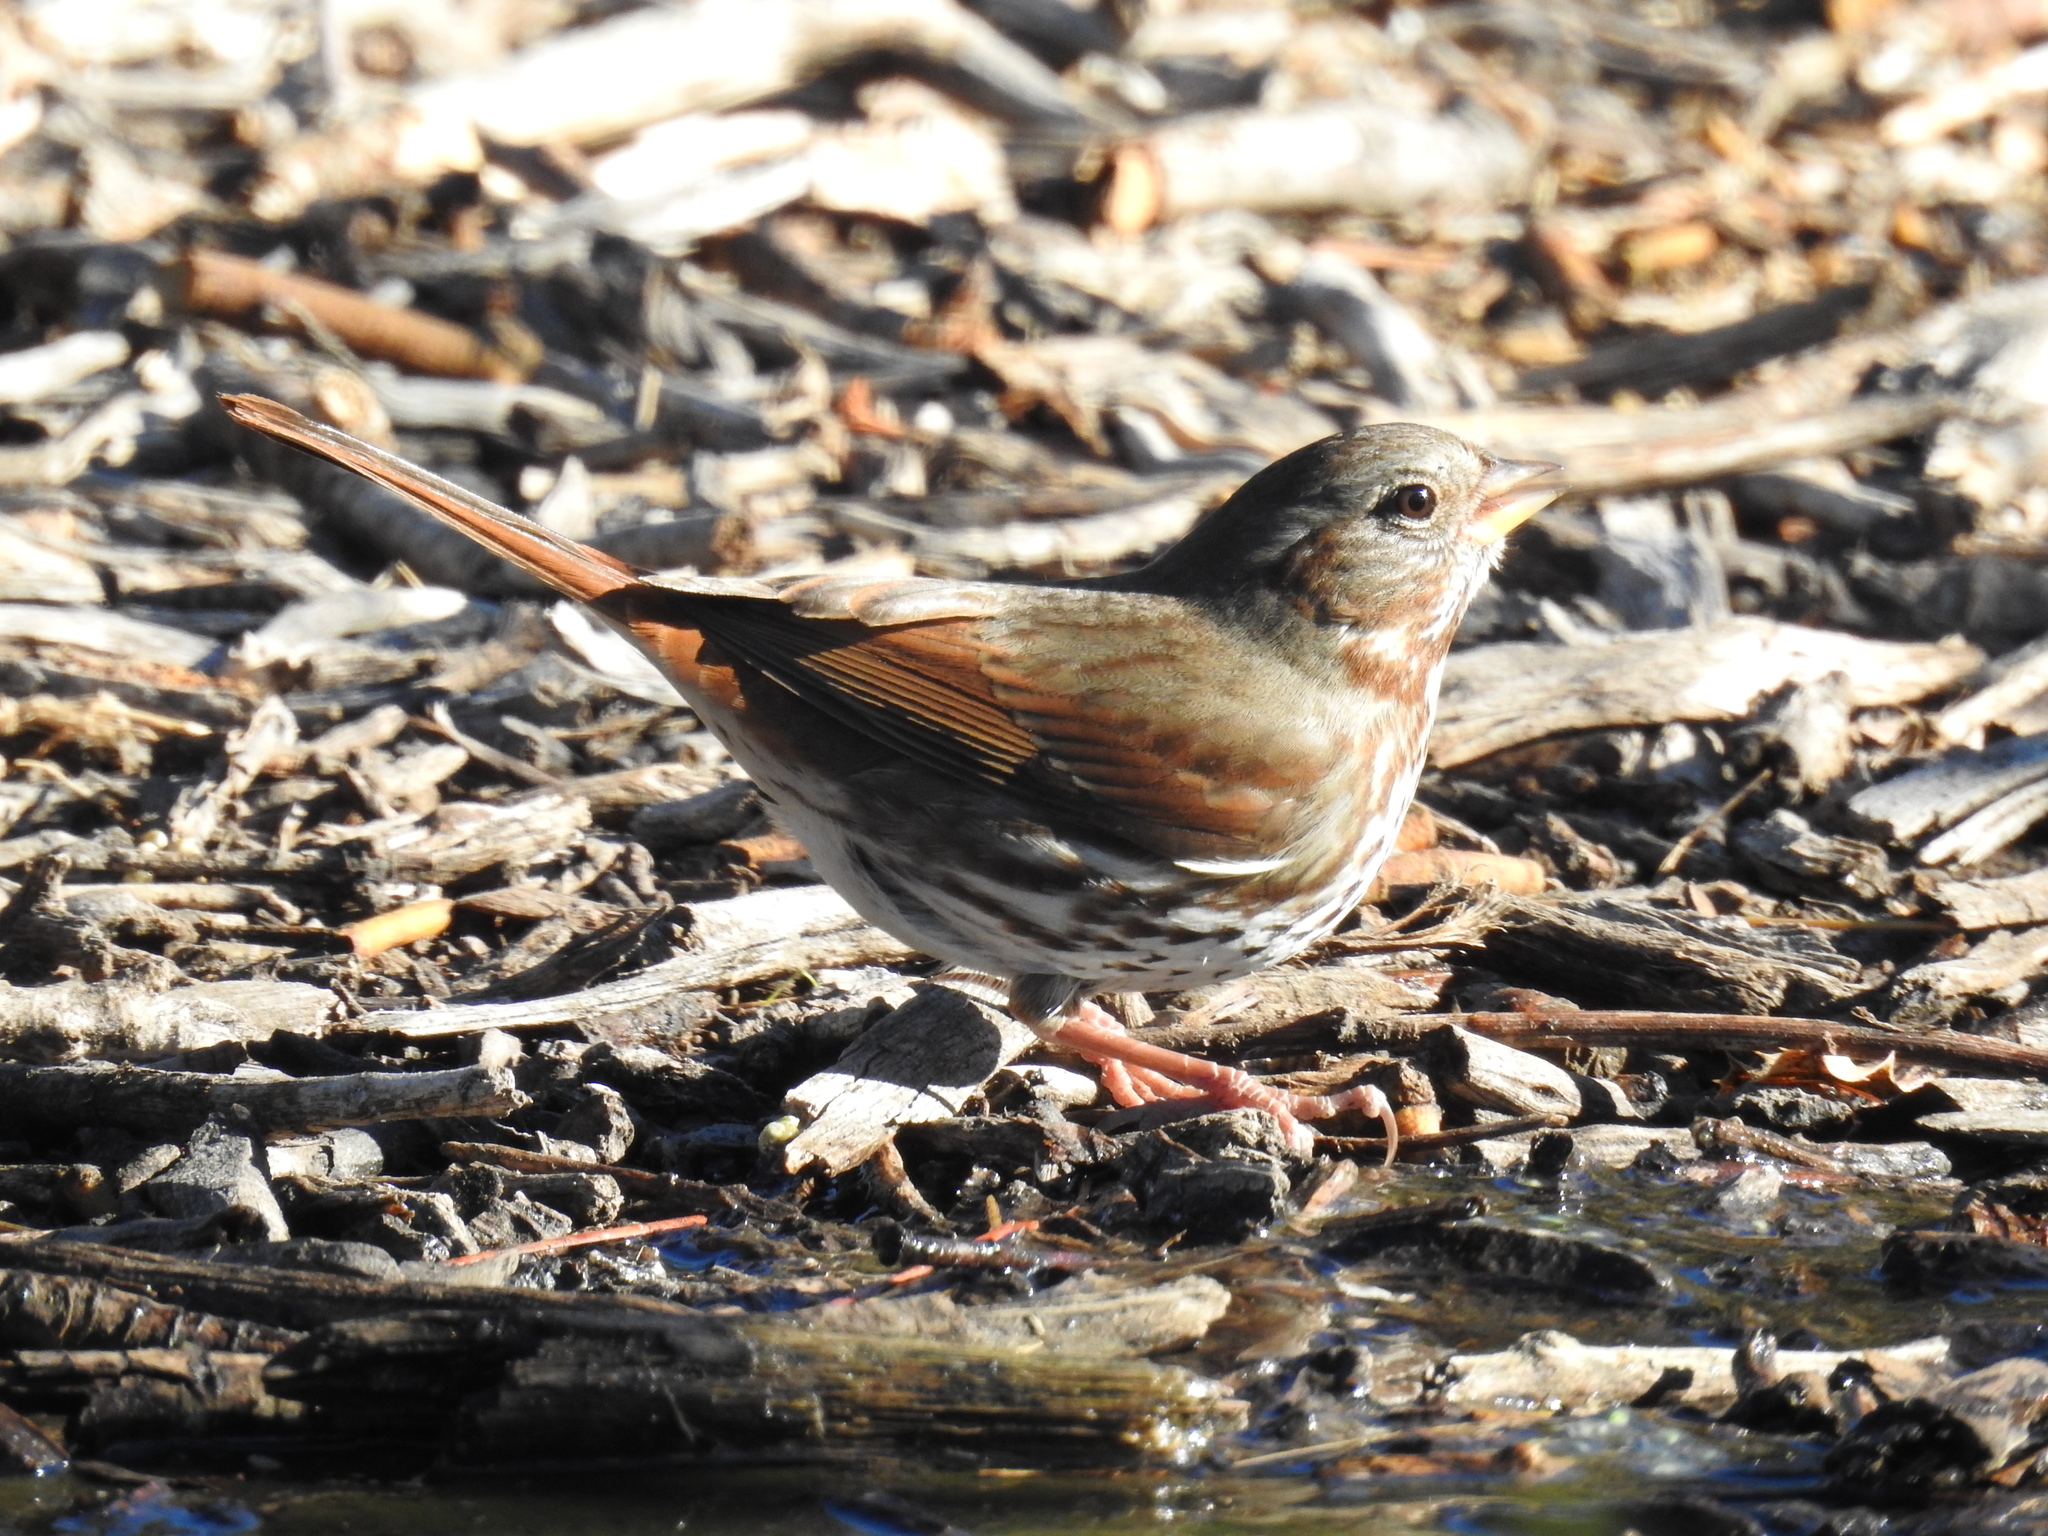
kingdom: Animalia
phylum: Chordata
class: Aves
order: Passeriformes
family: Passerellidae
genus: Passerella
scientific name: Passerella iliaca
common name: Fox sparrow
